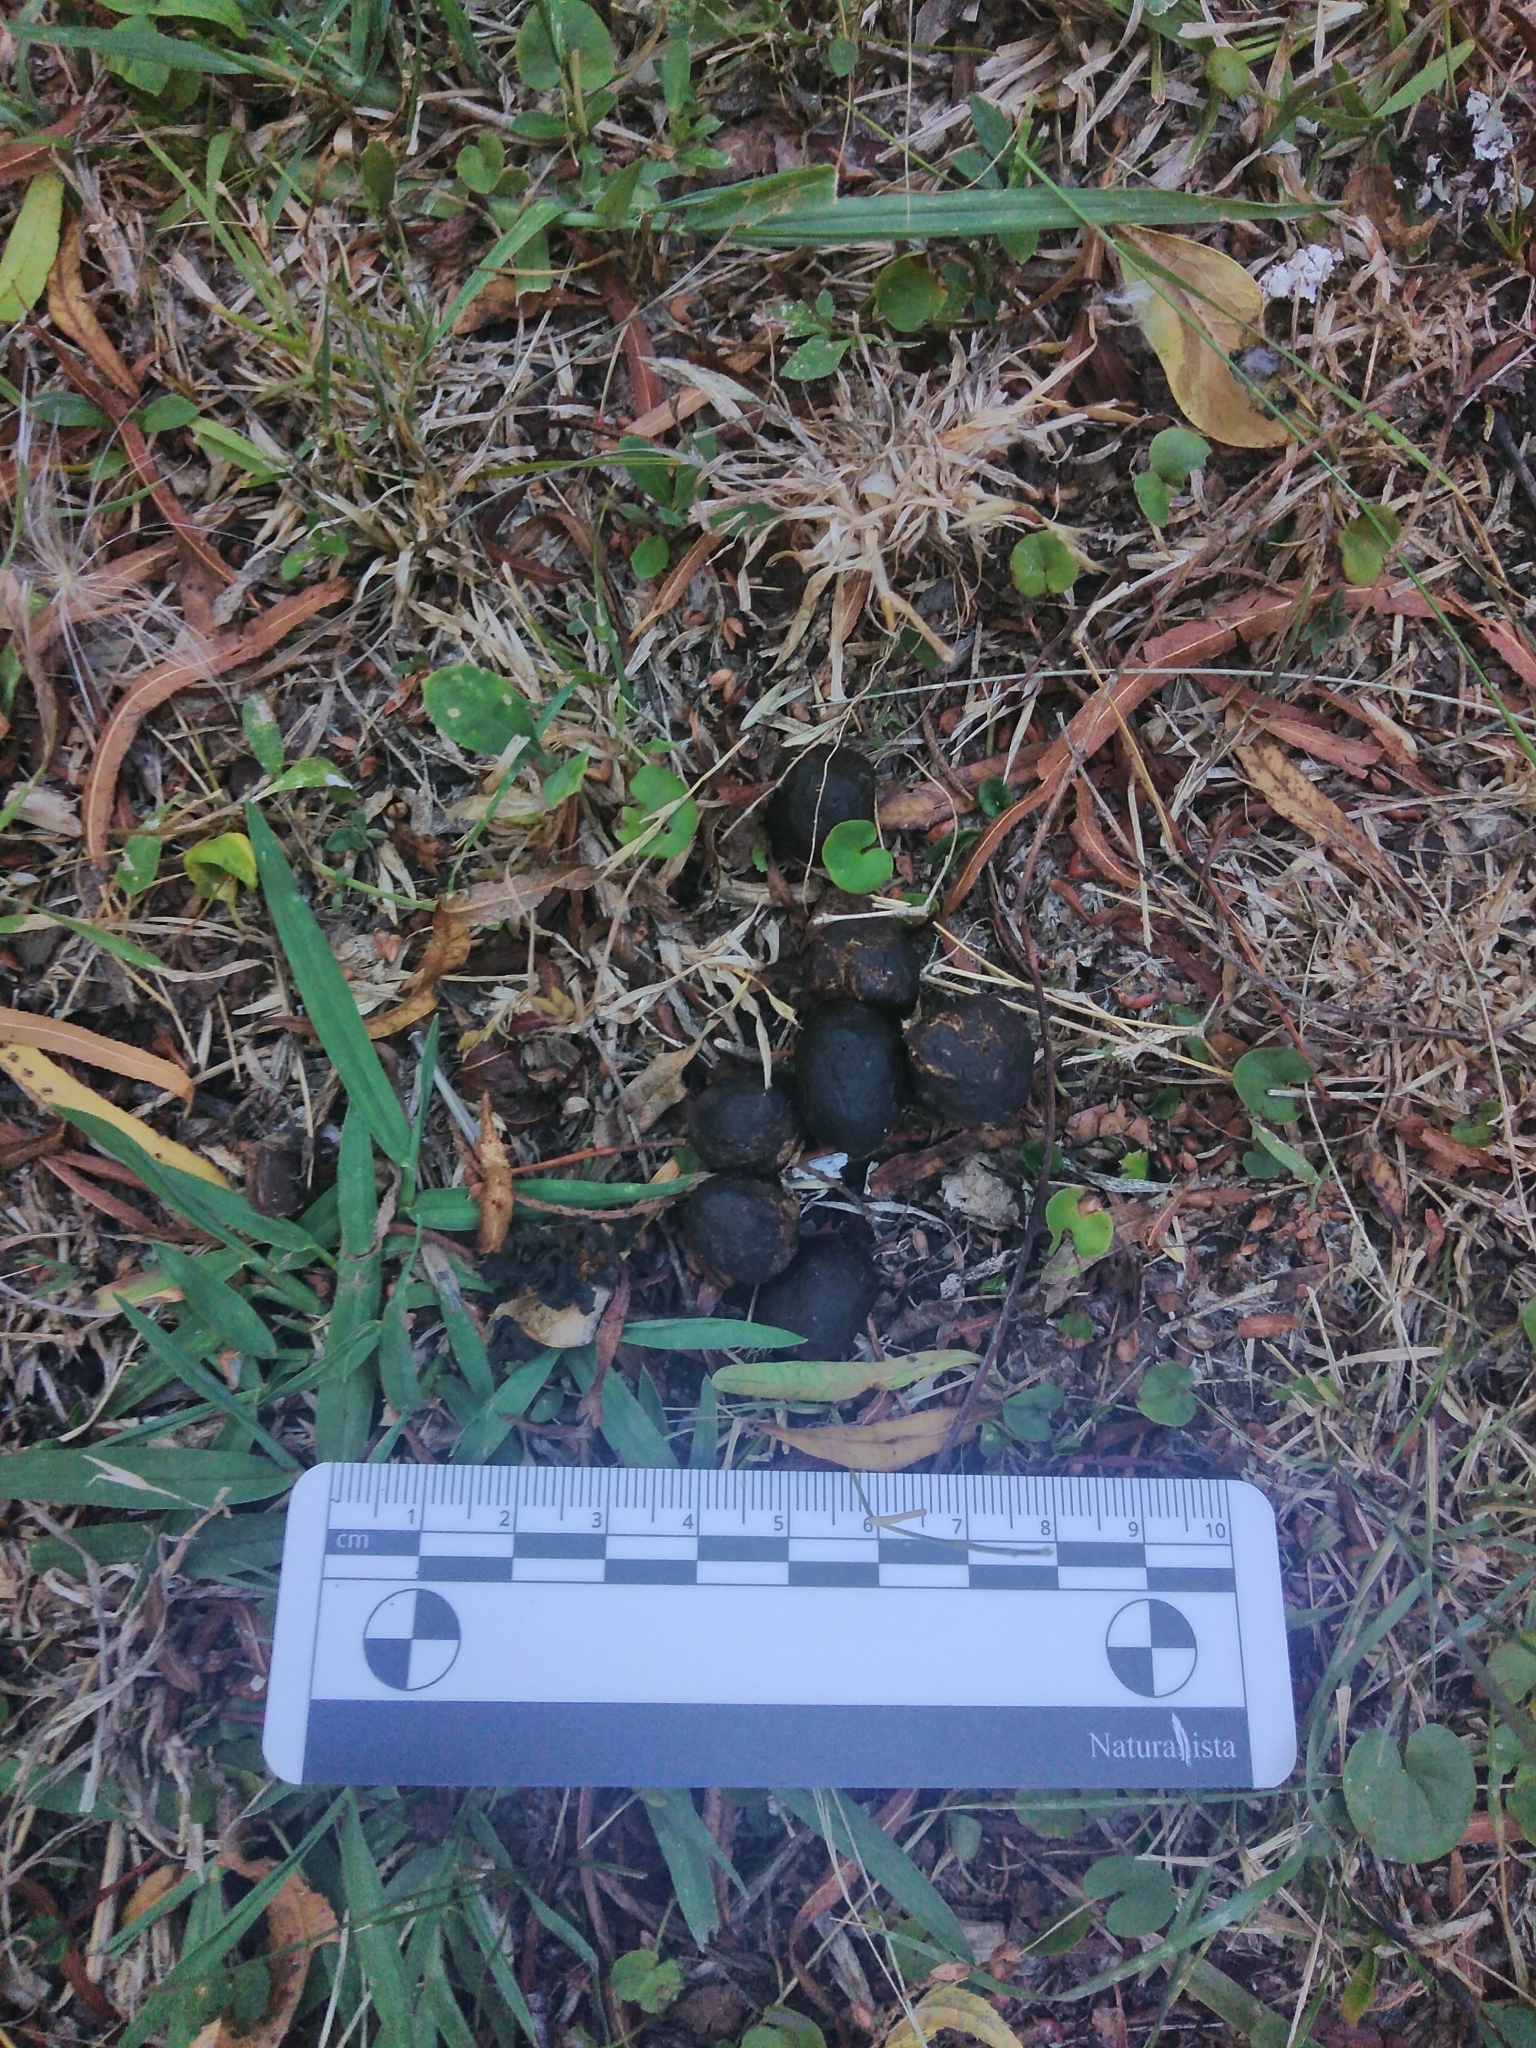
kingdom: Animalia
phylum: Chordata
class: Mammalia
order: Artiodactyla
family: Cervidae
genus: Axis
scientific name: Axis axis
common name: Chital
